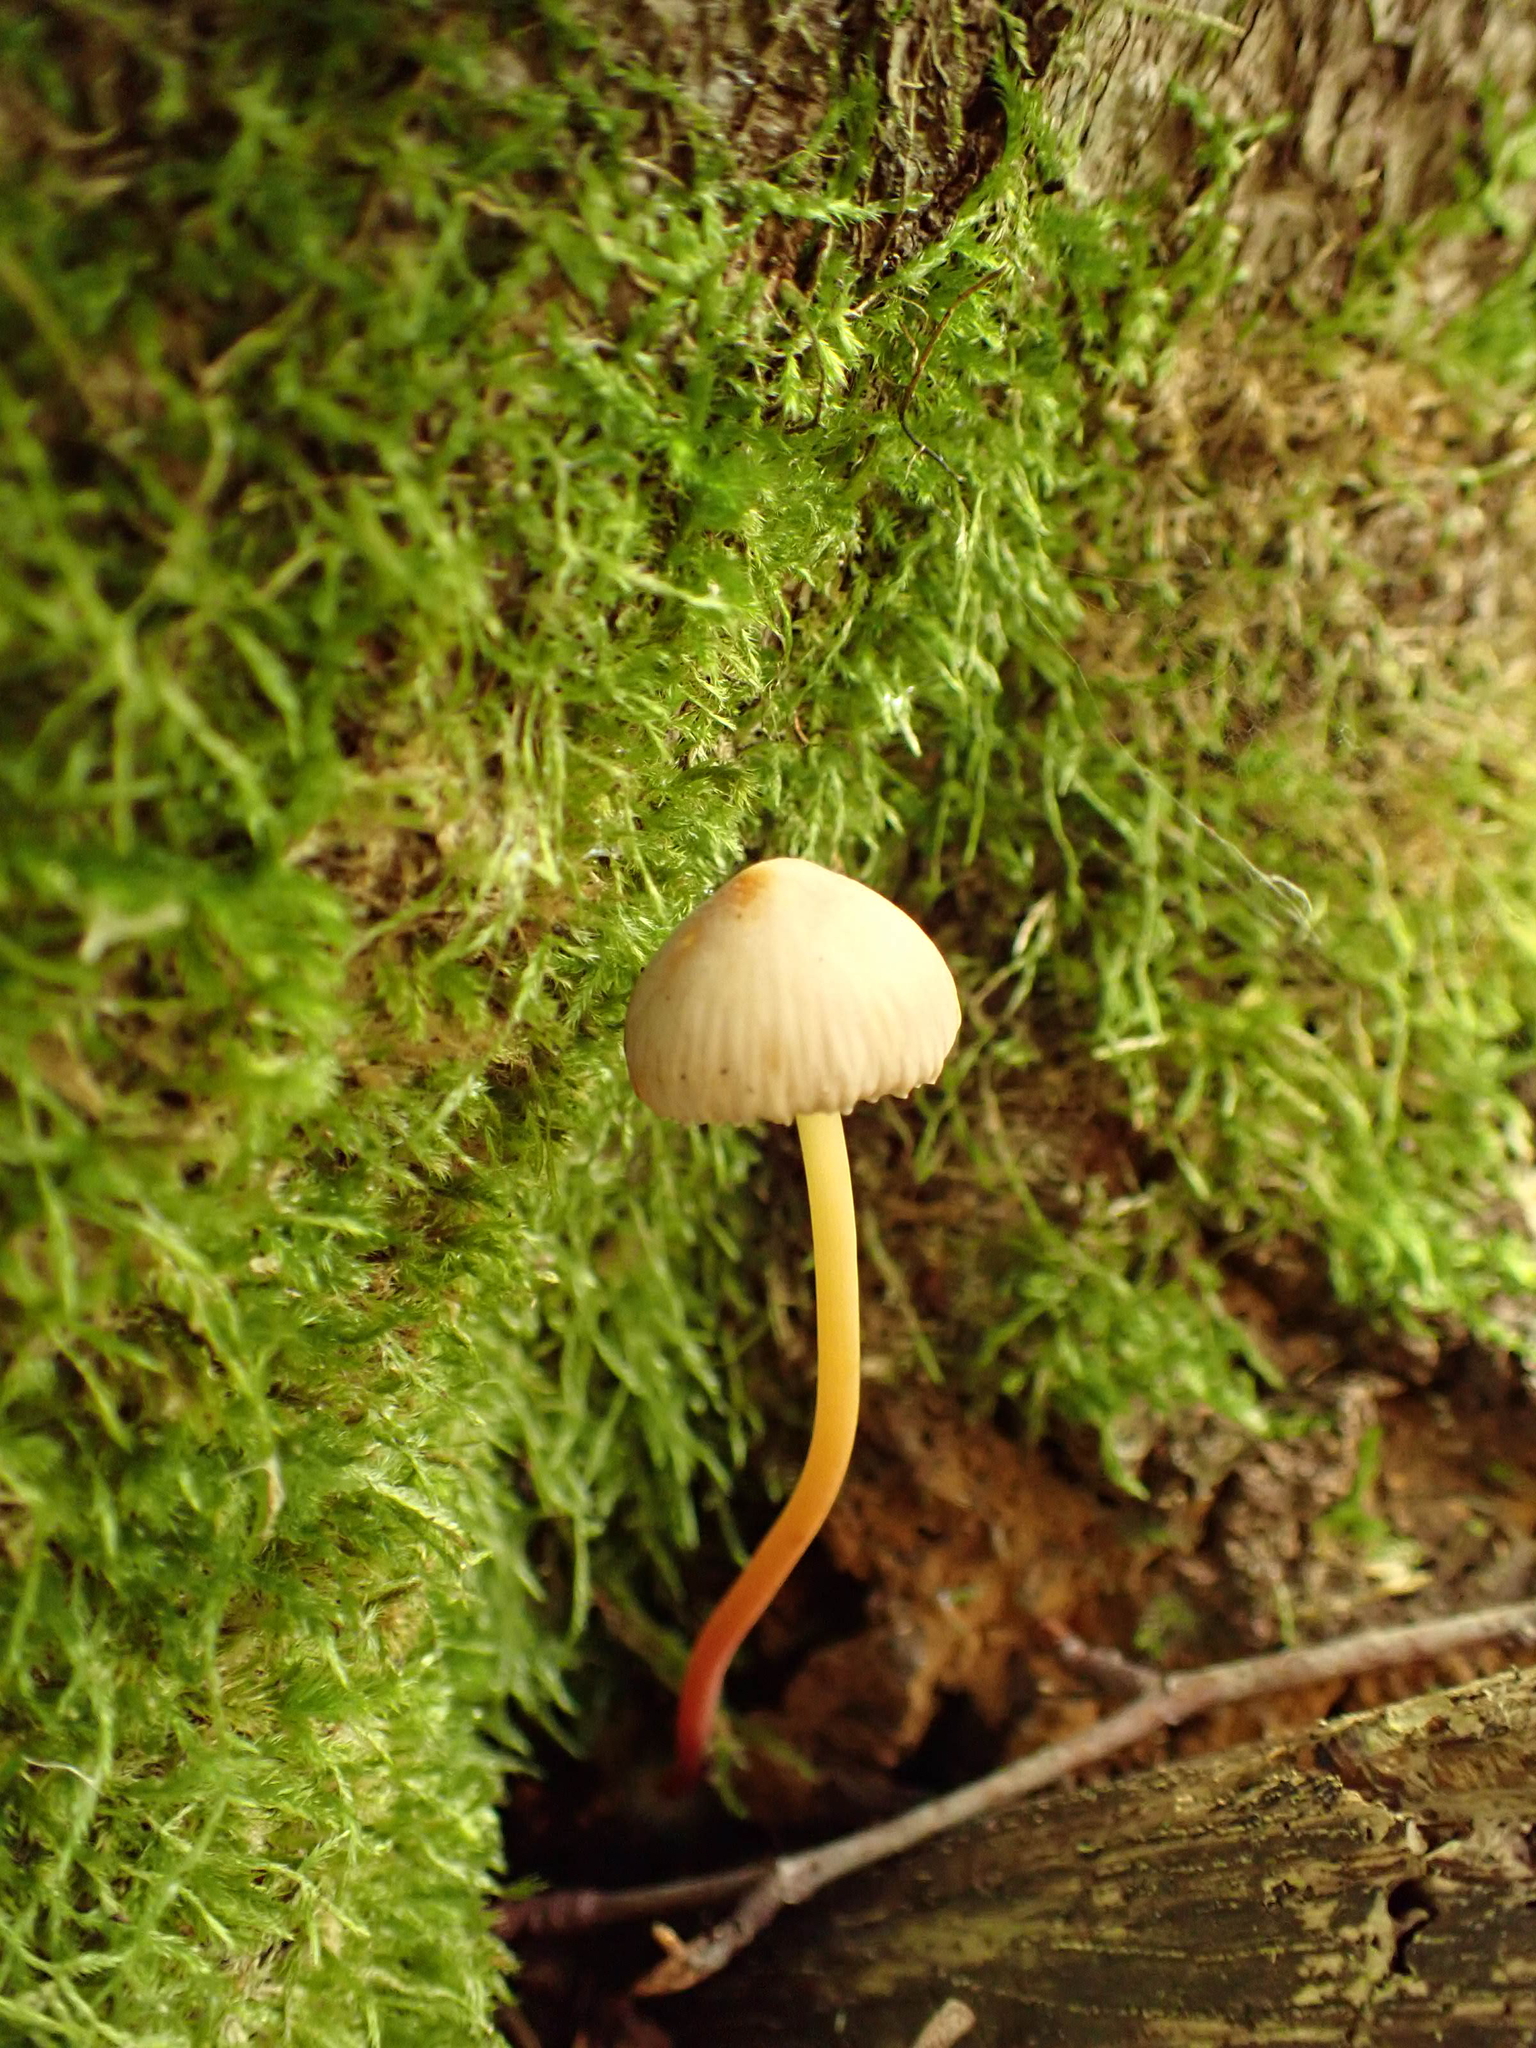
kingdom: Fungi
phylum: Basidiomycota
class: Agaricomycetes
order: Agaricales
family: Mycenaceae
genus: Mycena
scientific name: Mycena crocata
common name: Saffrondrop bonnet
